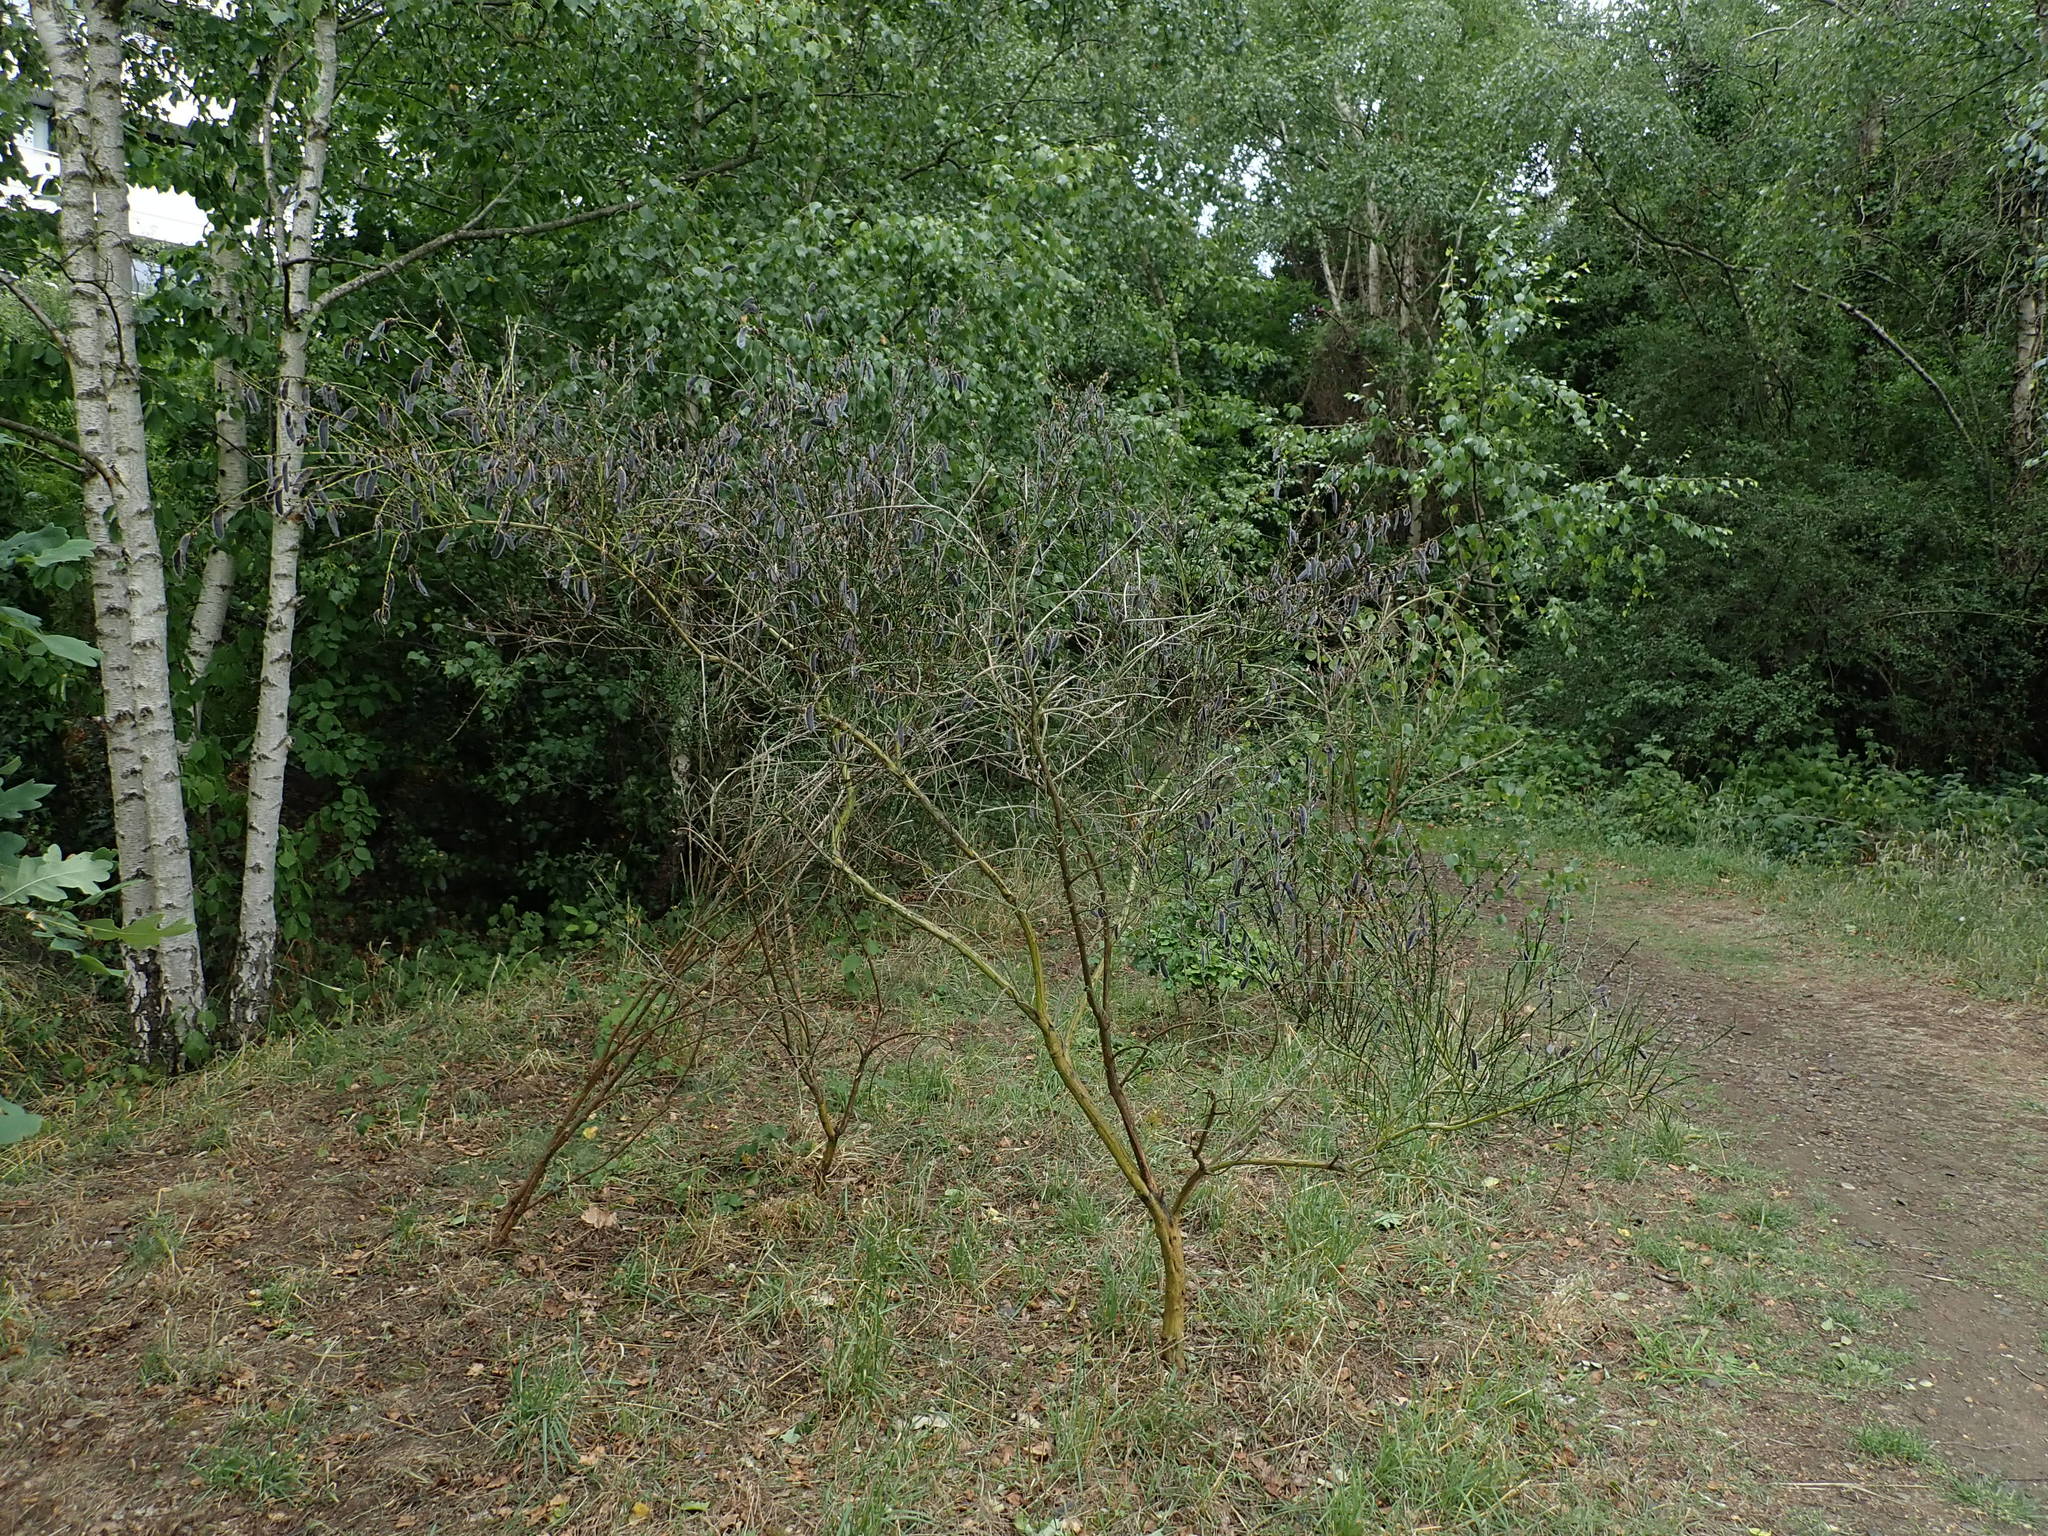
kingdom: Plantae
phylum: Tracheophyta
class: Magnoliopsida
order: Fabales
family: Fabaceae
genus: Cytisus
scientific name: Cytisus scoparius
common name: Scotch broom
